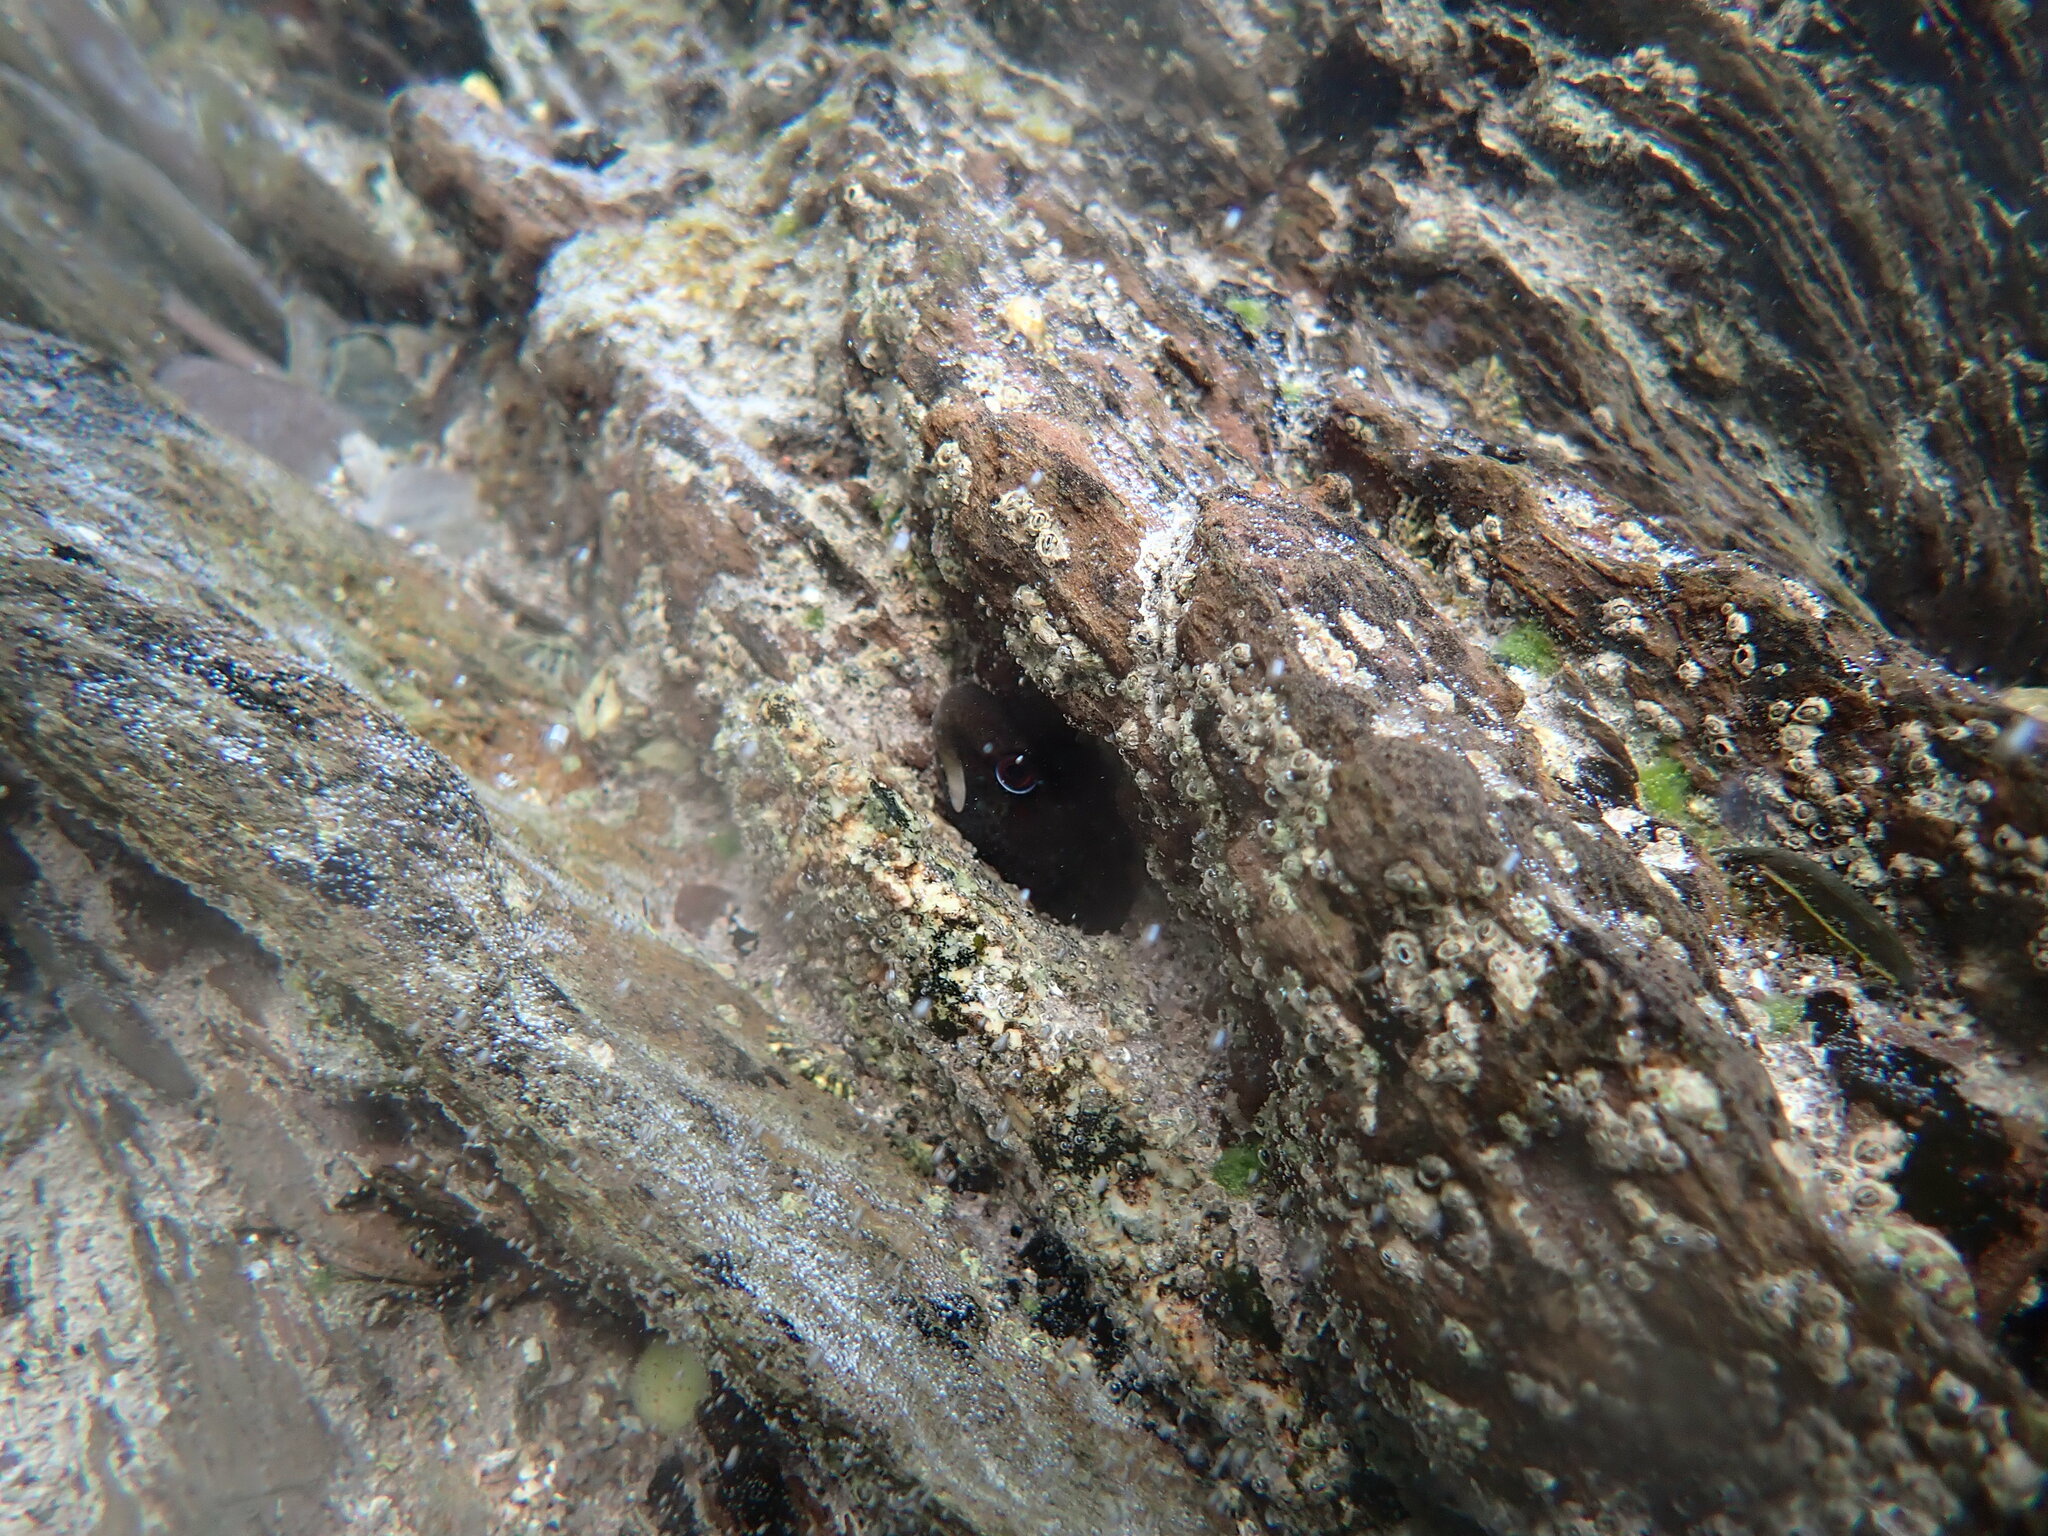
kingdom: Animalia
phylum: Chordata
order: Perciformes
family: Blenniidae
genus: Lipophrys
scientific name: Lipophrys pholis
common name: Shanny
